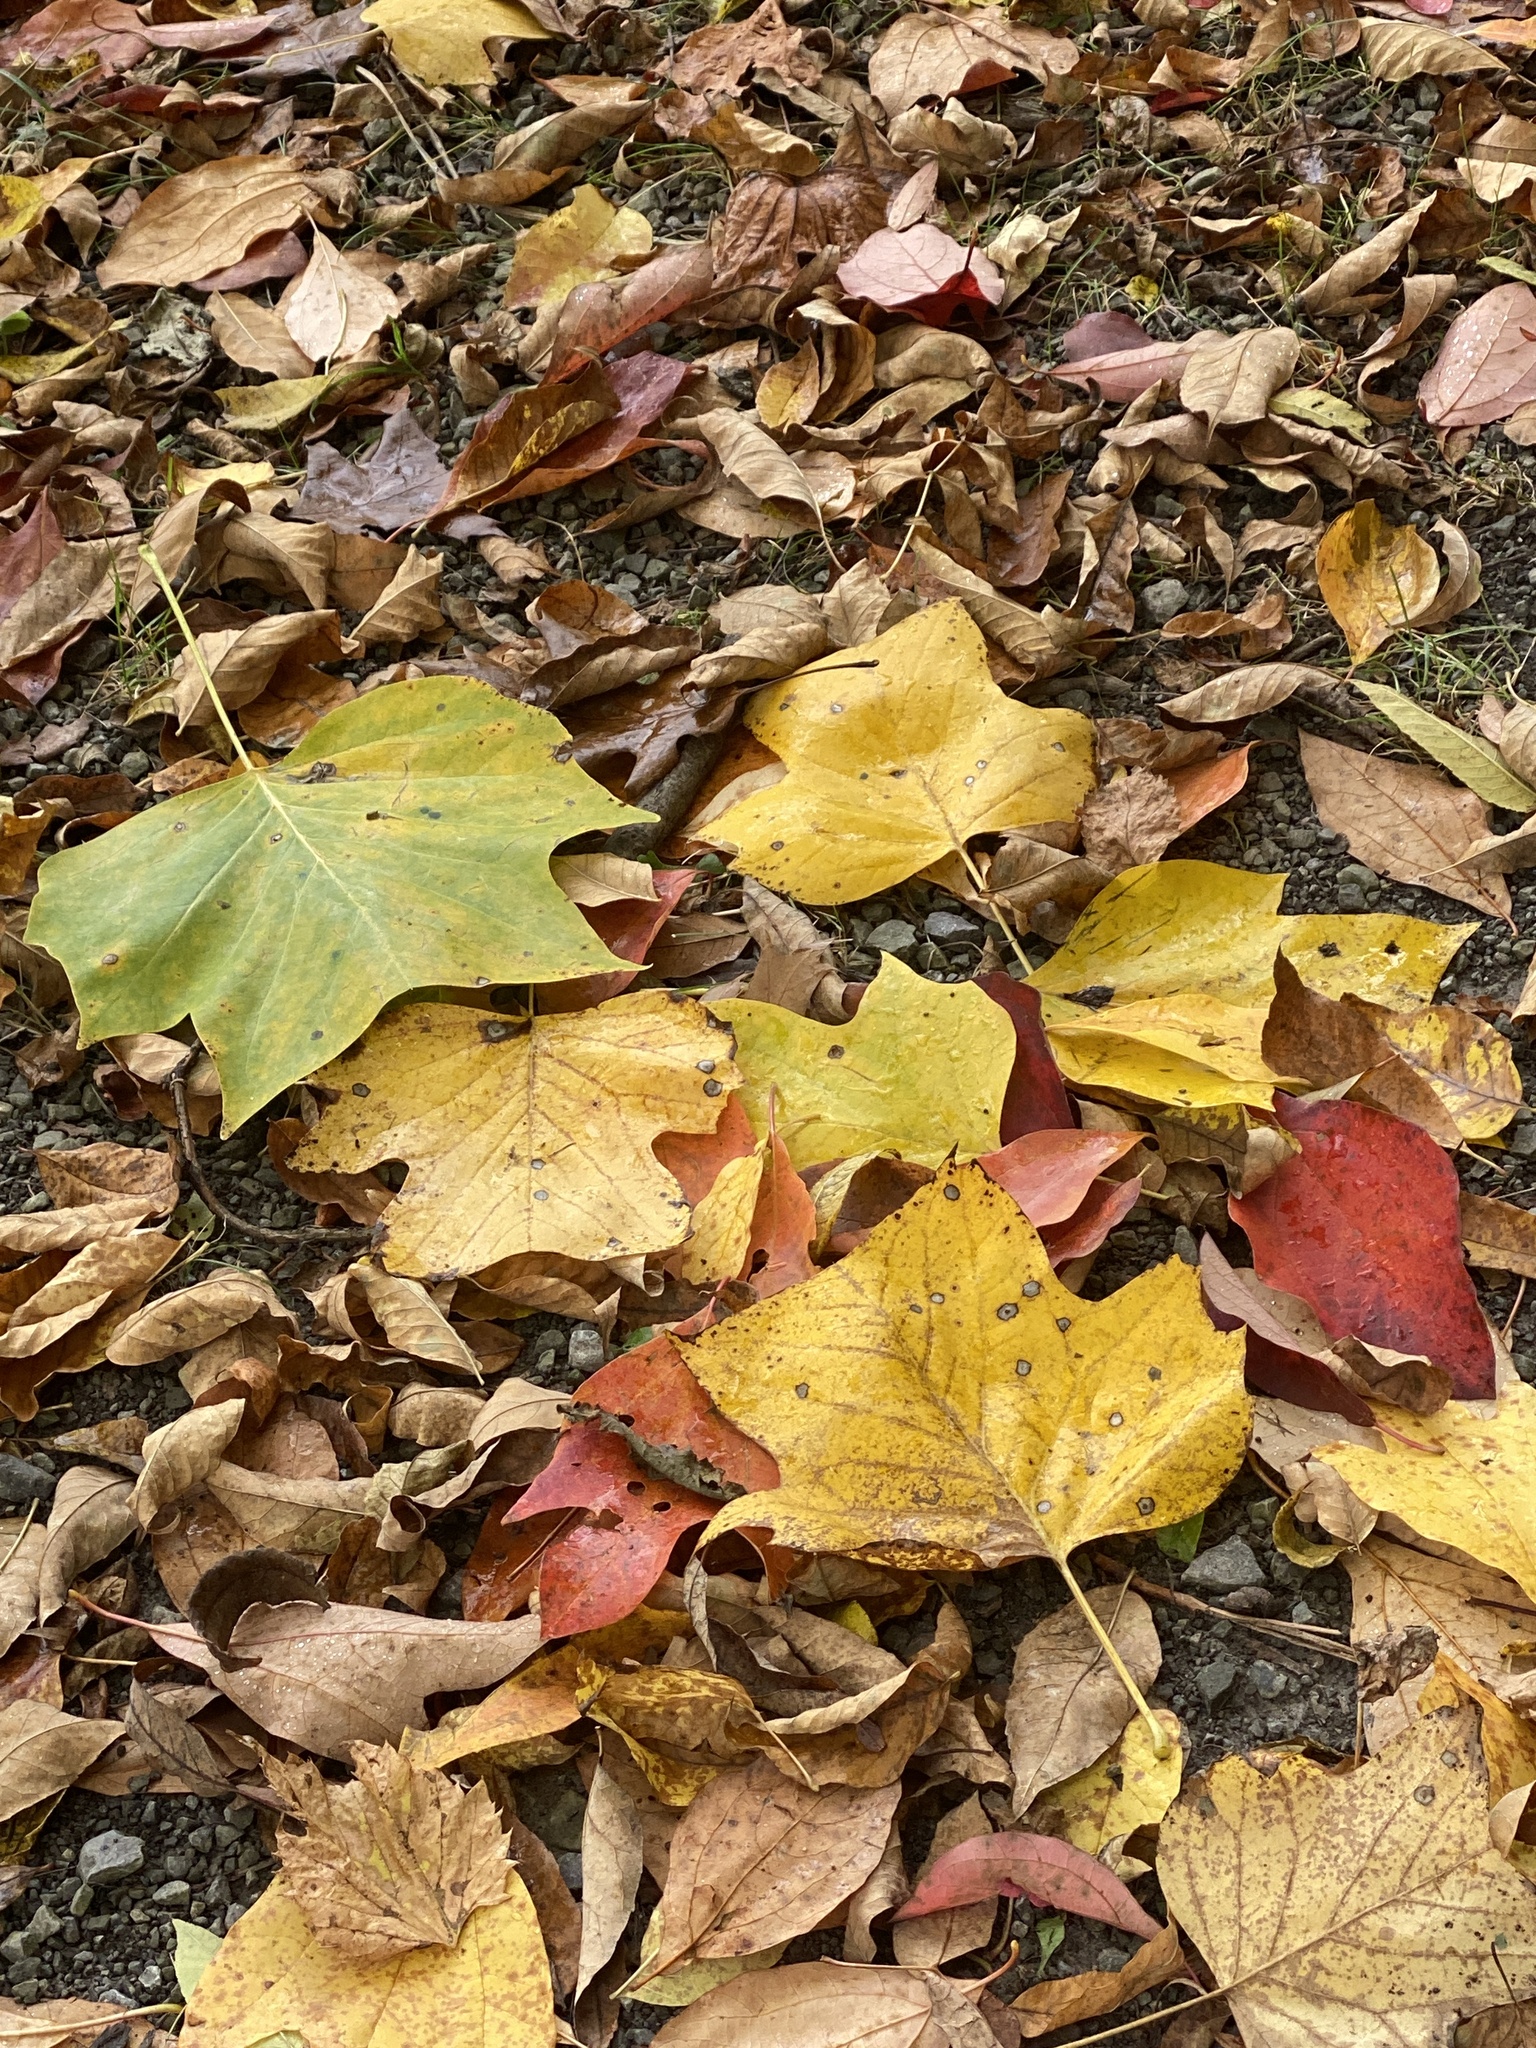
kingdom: Plantae
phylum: Tracheophyta
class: Magnoliopsida
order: Magnoliales
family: Magnoliaceae
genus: Liriodendron
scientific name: Liriodendron tulipifera
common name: Tulip tree
